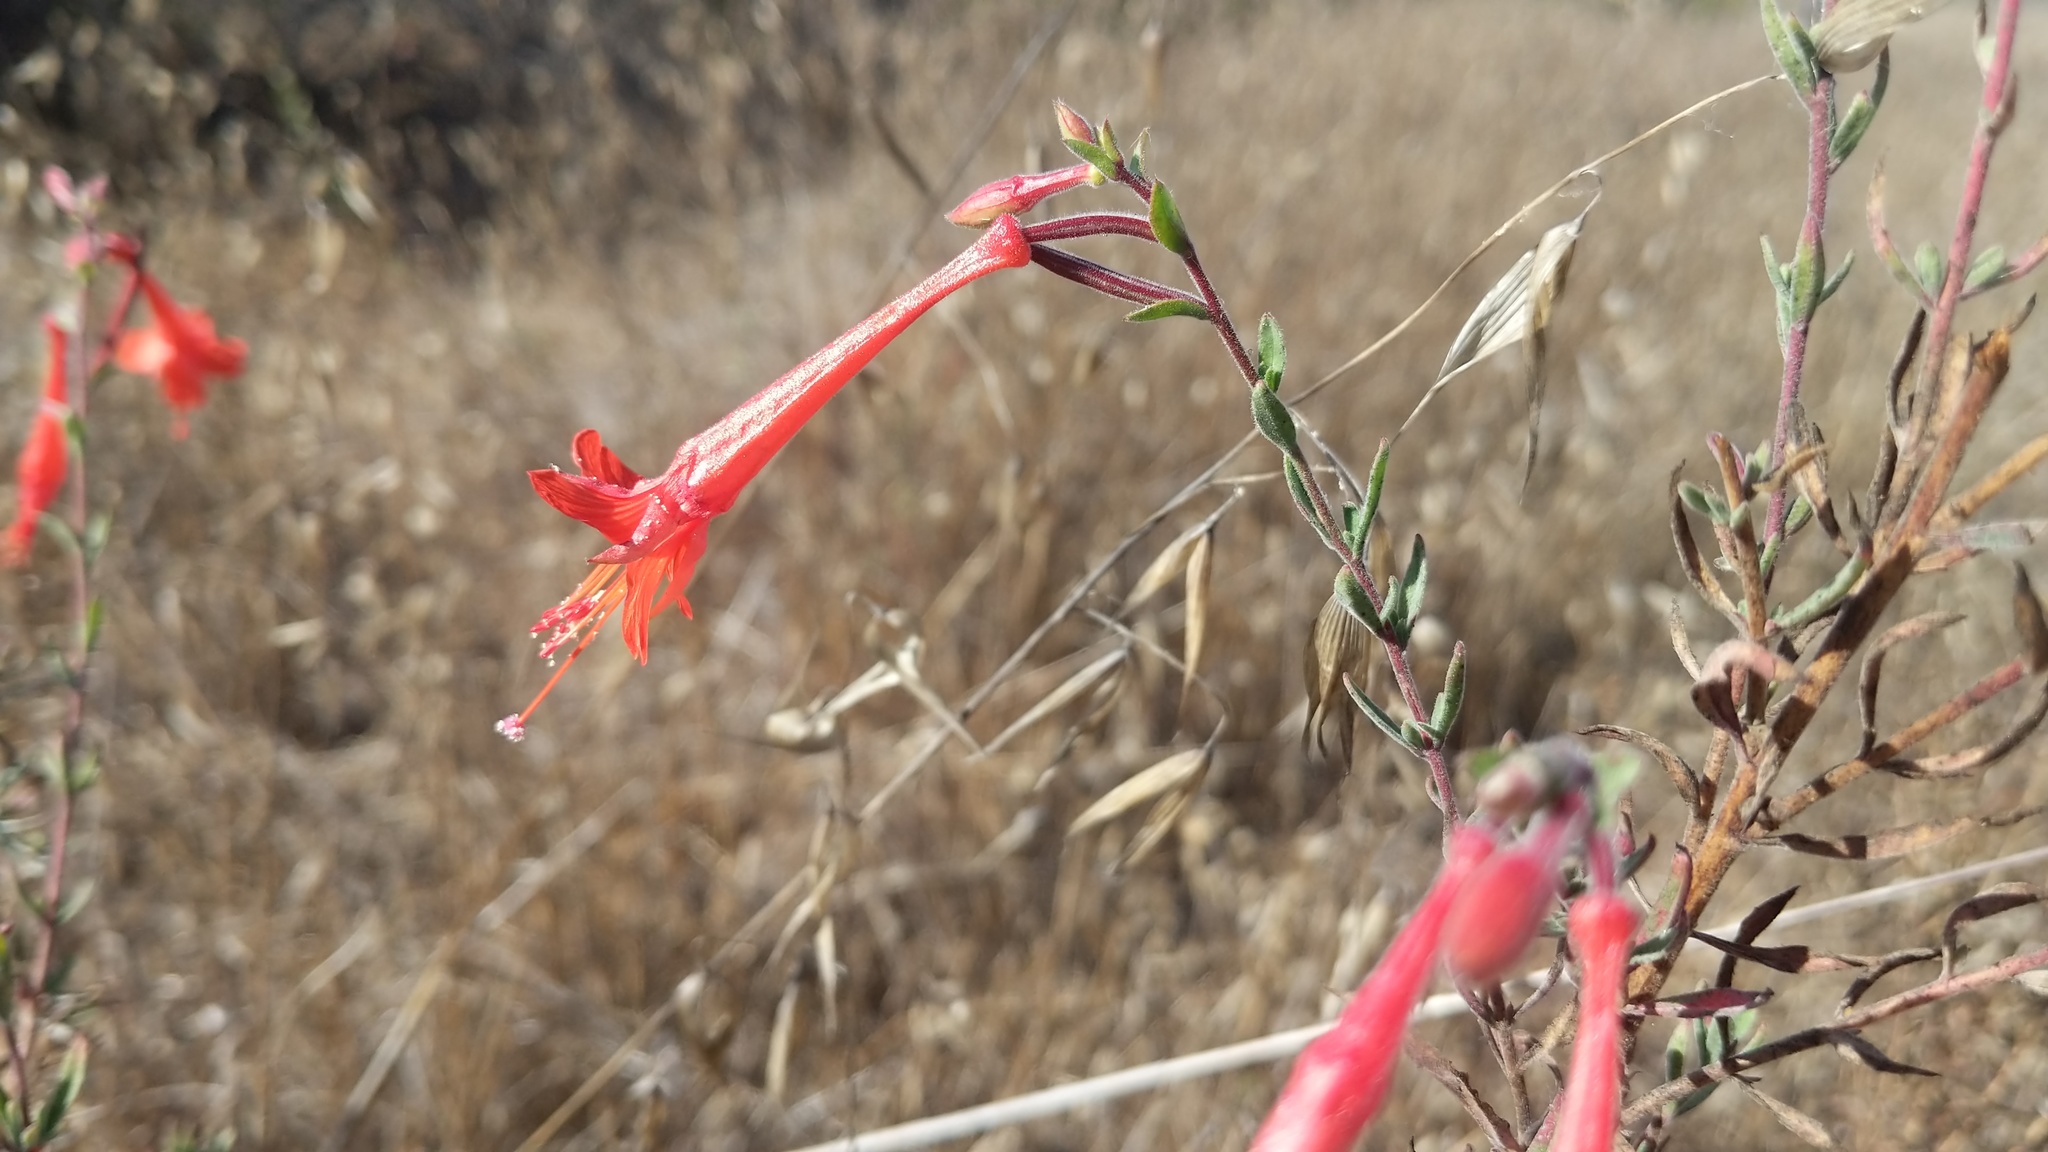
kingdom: Plantae
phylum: Tracheophyta
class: Magnoliopsida
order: Myrtales
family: Onagraceae
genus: Epilobium
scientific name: Epilobium canum
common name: California-fuchsia
